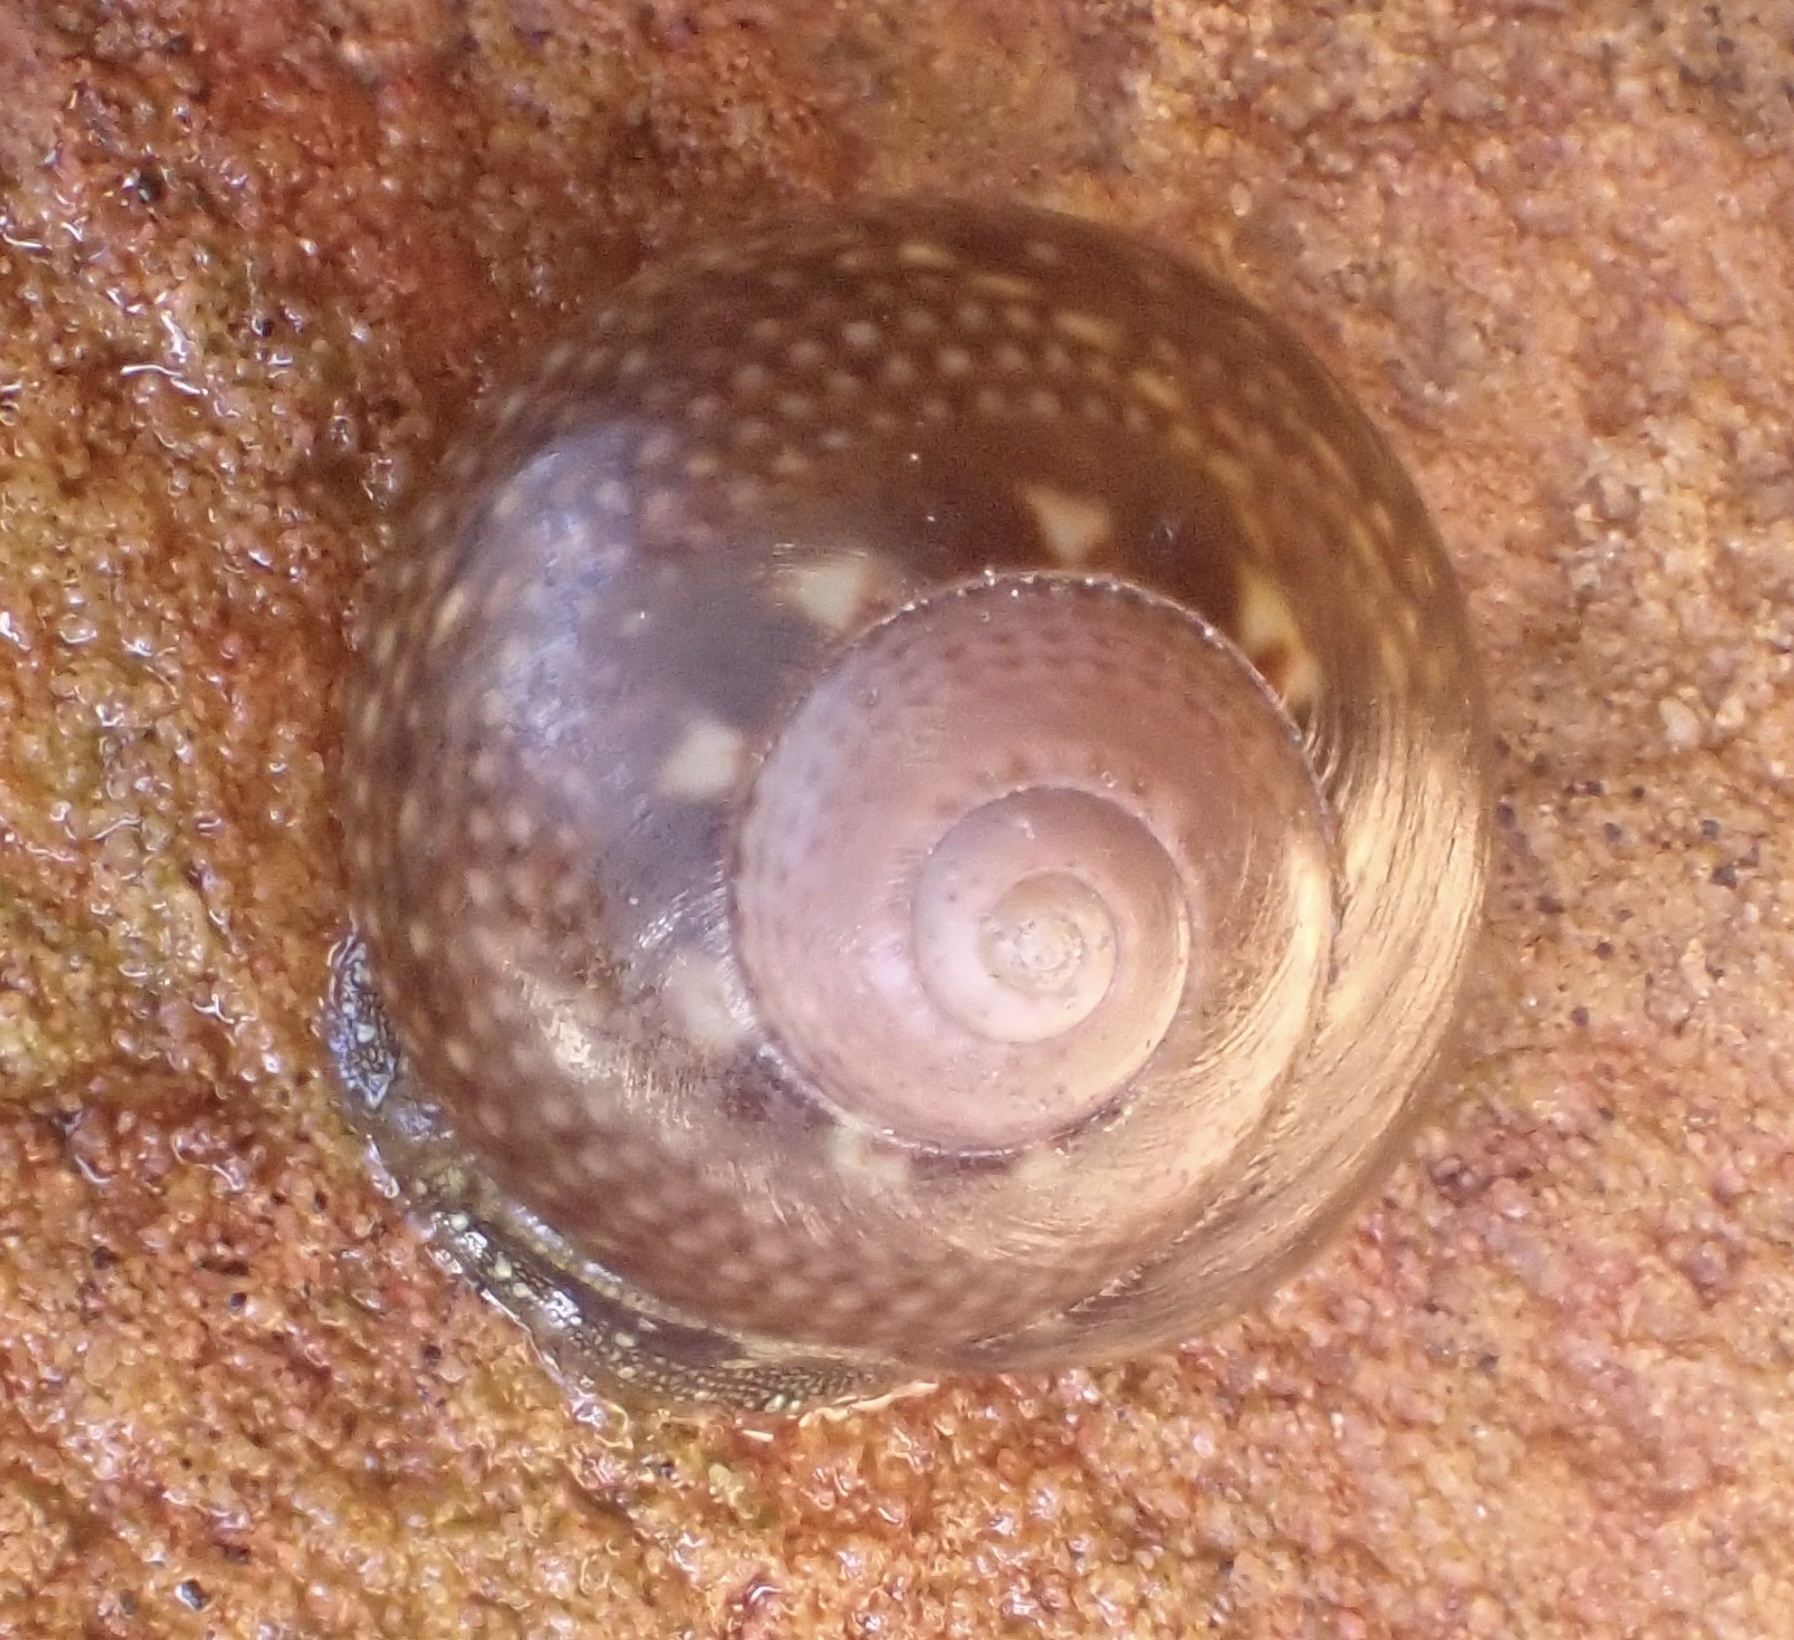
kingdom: Animalia
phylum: Mollusca
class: Gastropoda
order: Trochida
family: Trochidae
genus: Oxystele
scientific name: Oxystele impervia
